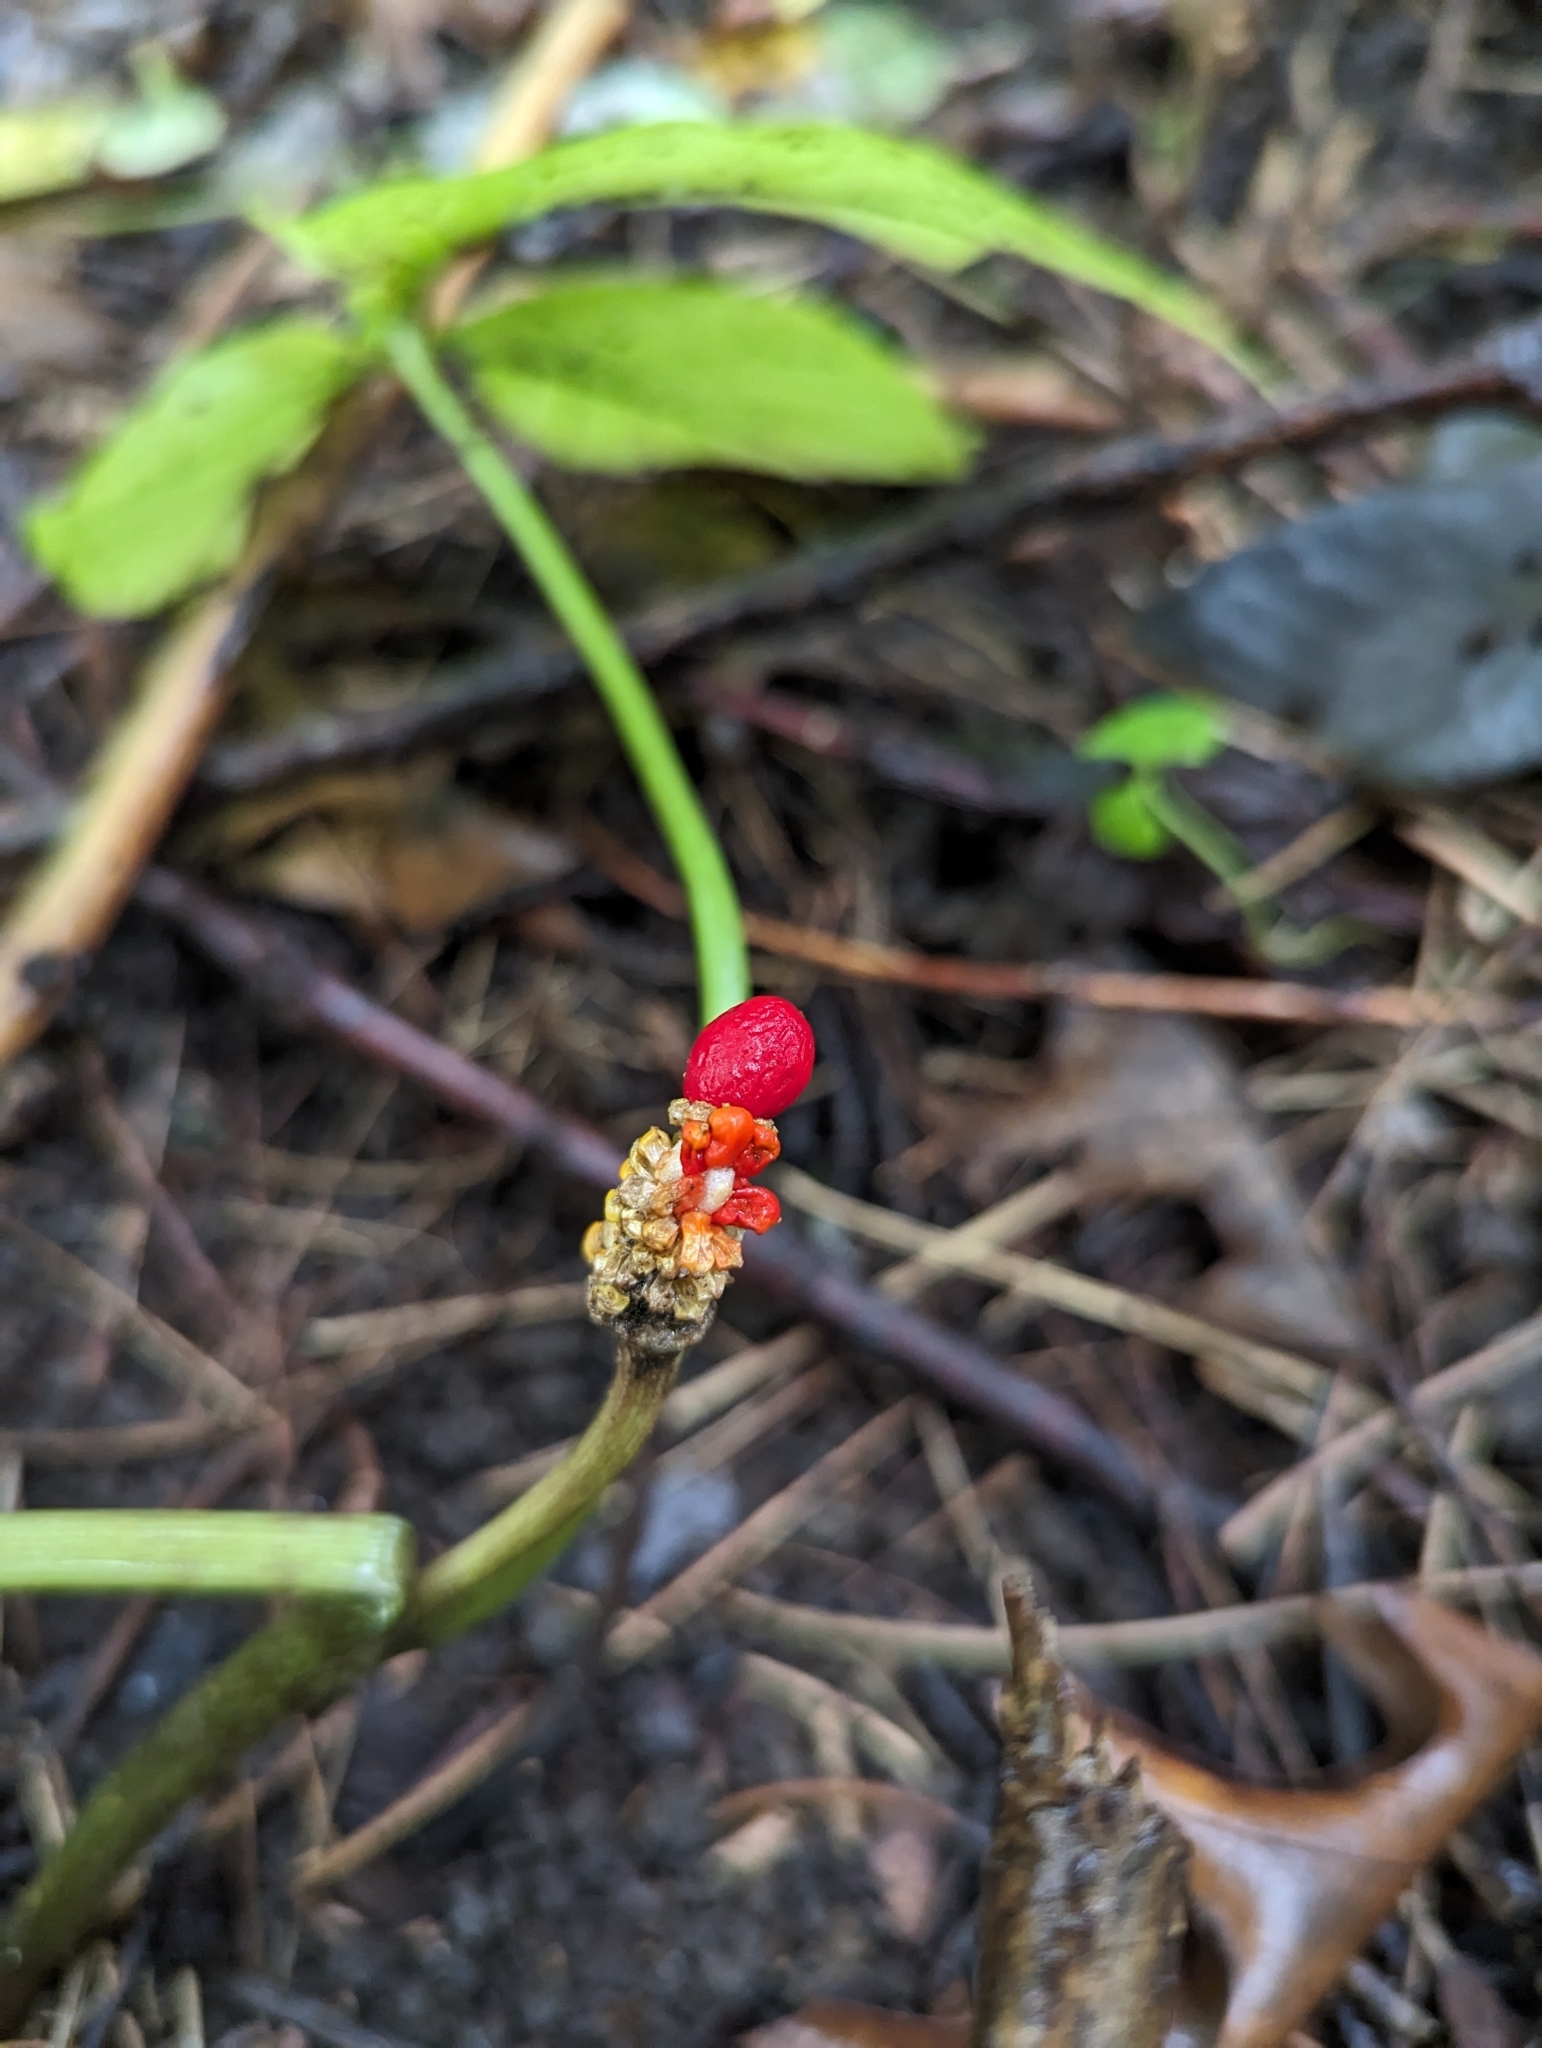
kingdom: Plantae
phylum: Tracheophyta
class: Liliopsida
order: Alismatales
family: Araceae
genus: Arisaema
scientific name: Arisaema triphyllum
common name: Jack-in-the-pulpit
